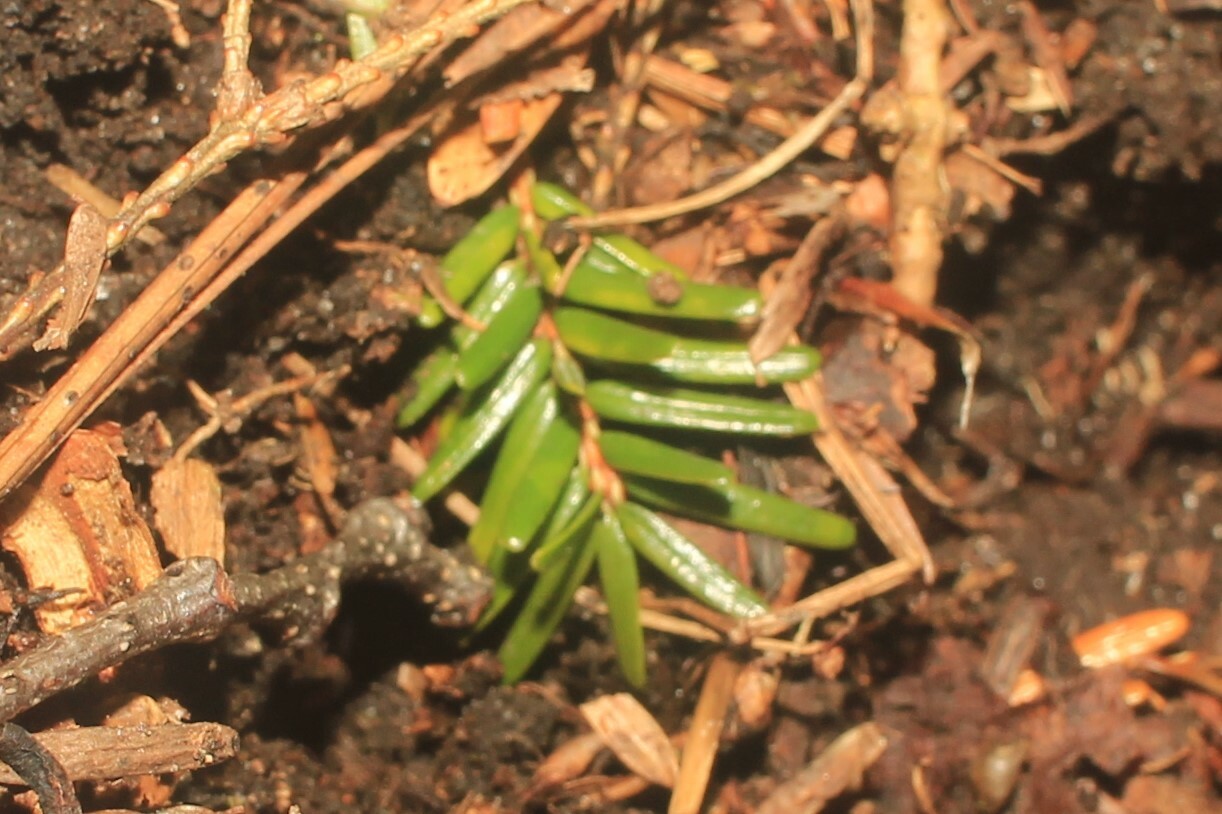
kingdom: Plantae
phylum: Tracheophyta
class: Pinopsida
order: Pinales
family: Pinaceae
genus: Tsuga
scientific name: Tsuga canadensis
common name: Eastern hemlock
